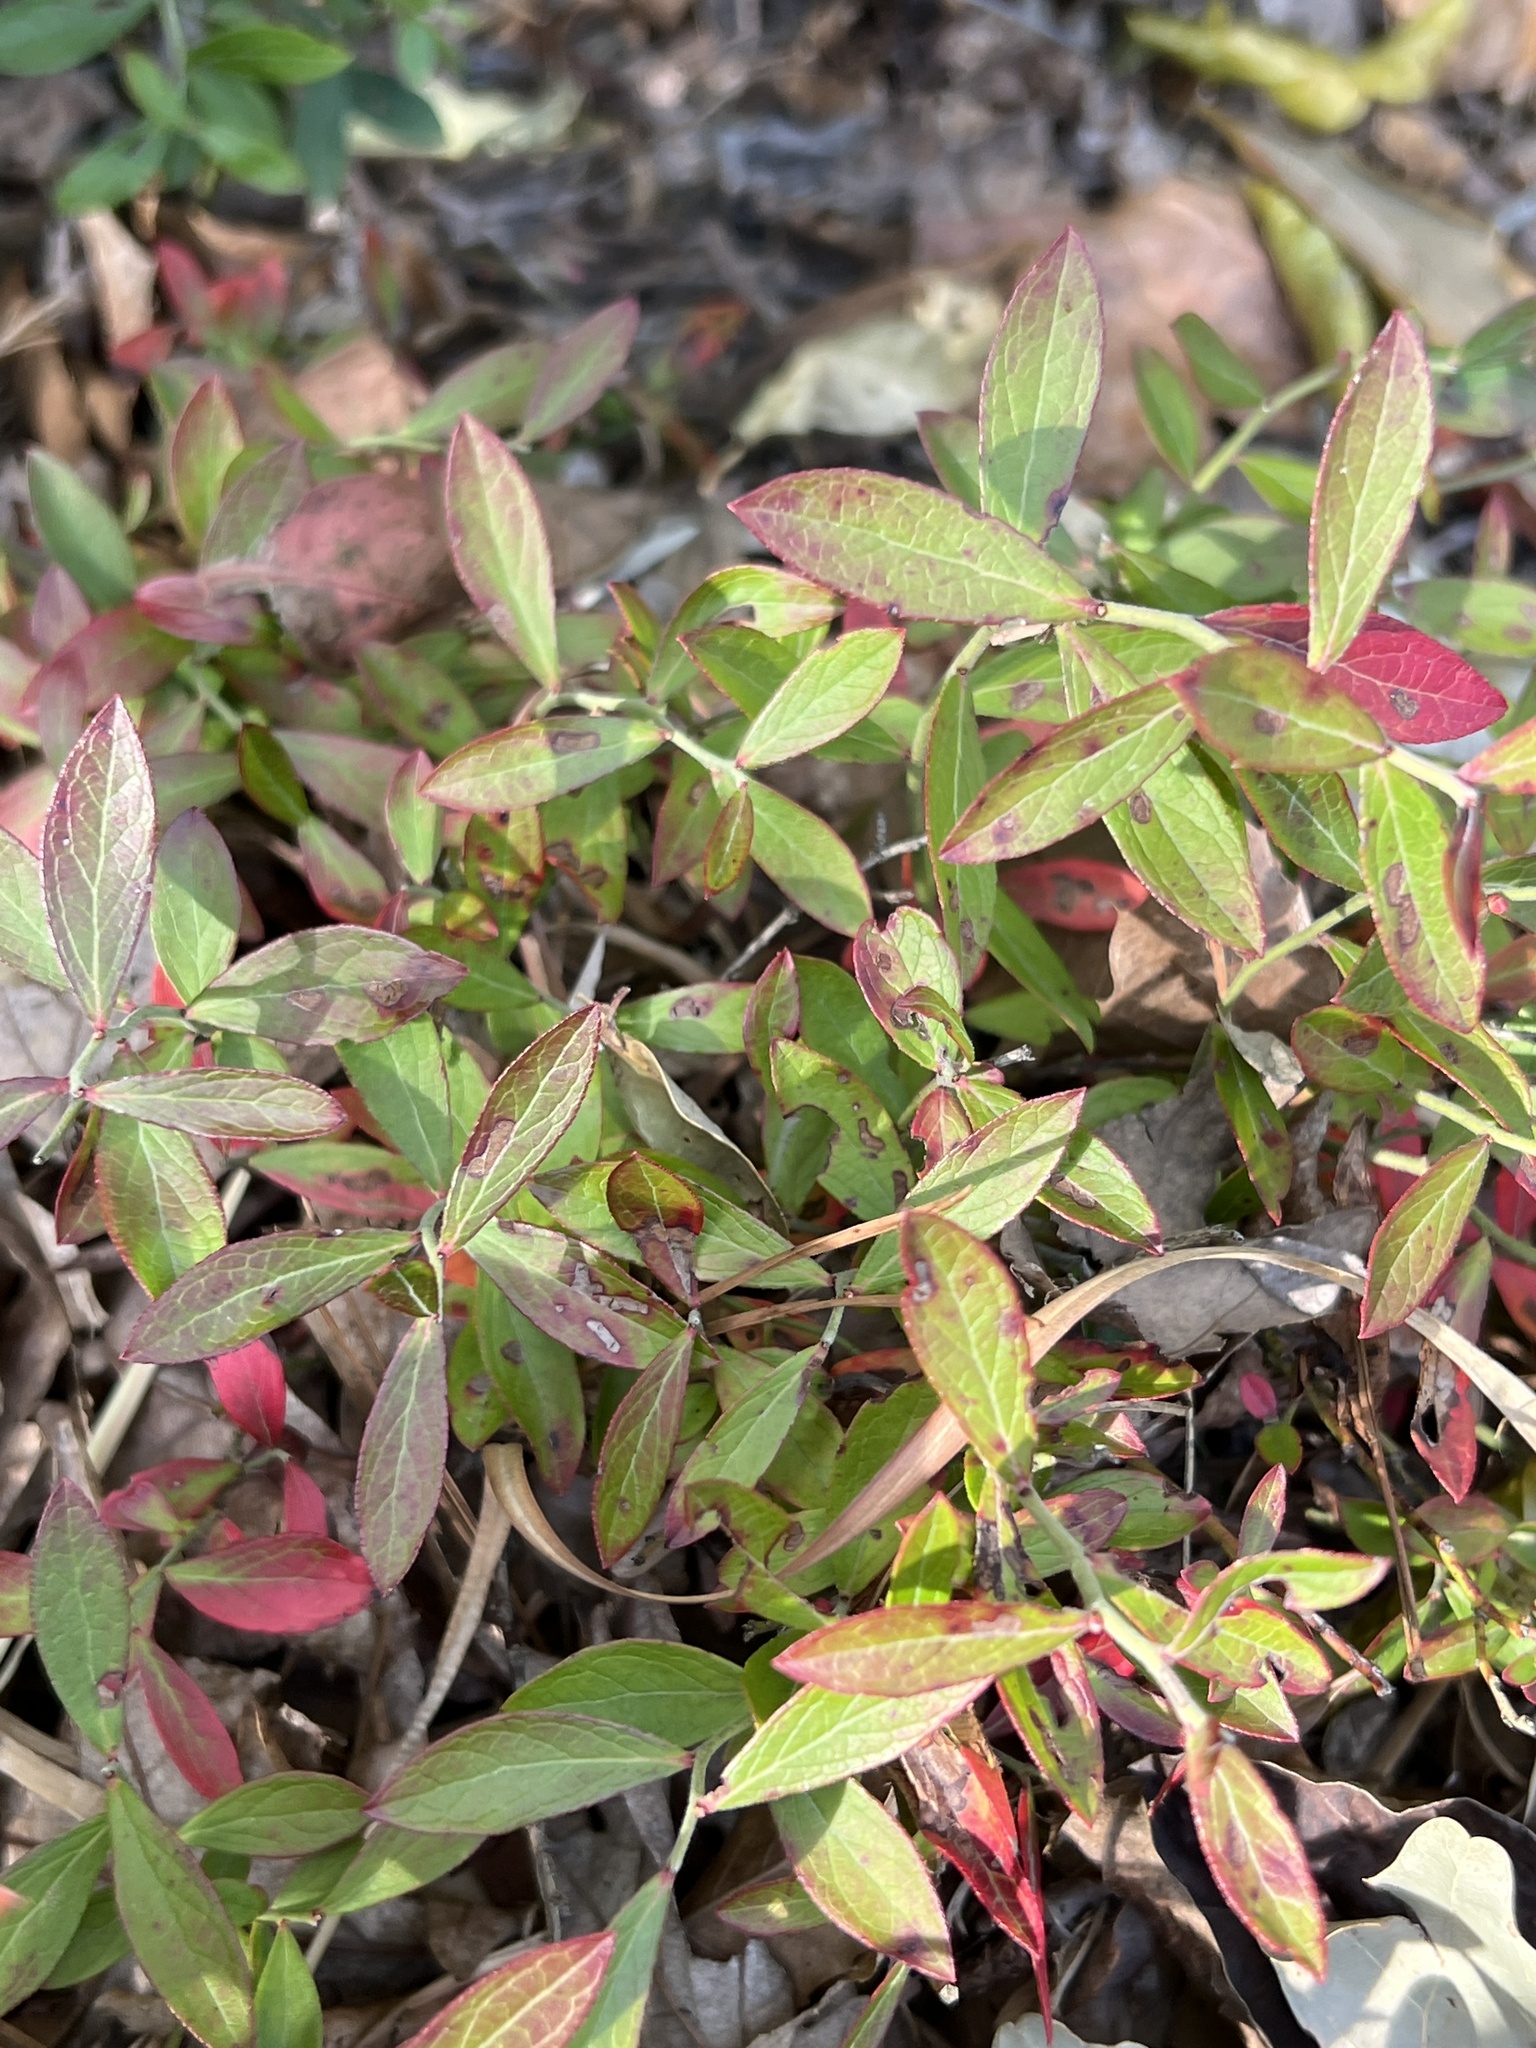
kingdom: Plantae
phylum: Tracheophyta
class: Magnoliopsida
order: Ericales
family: Ericaceae
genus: Vaccinium
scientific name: Vaccinium tenellum
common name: Southern blueberry
